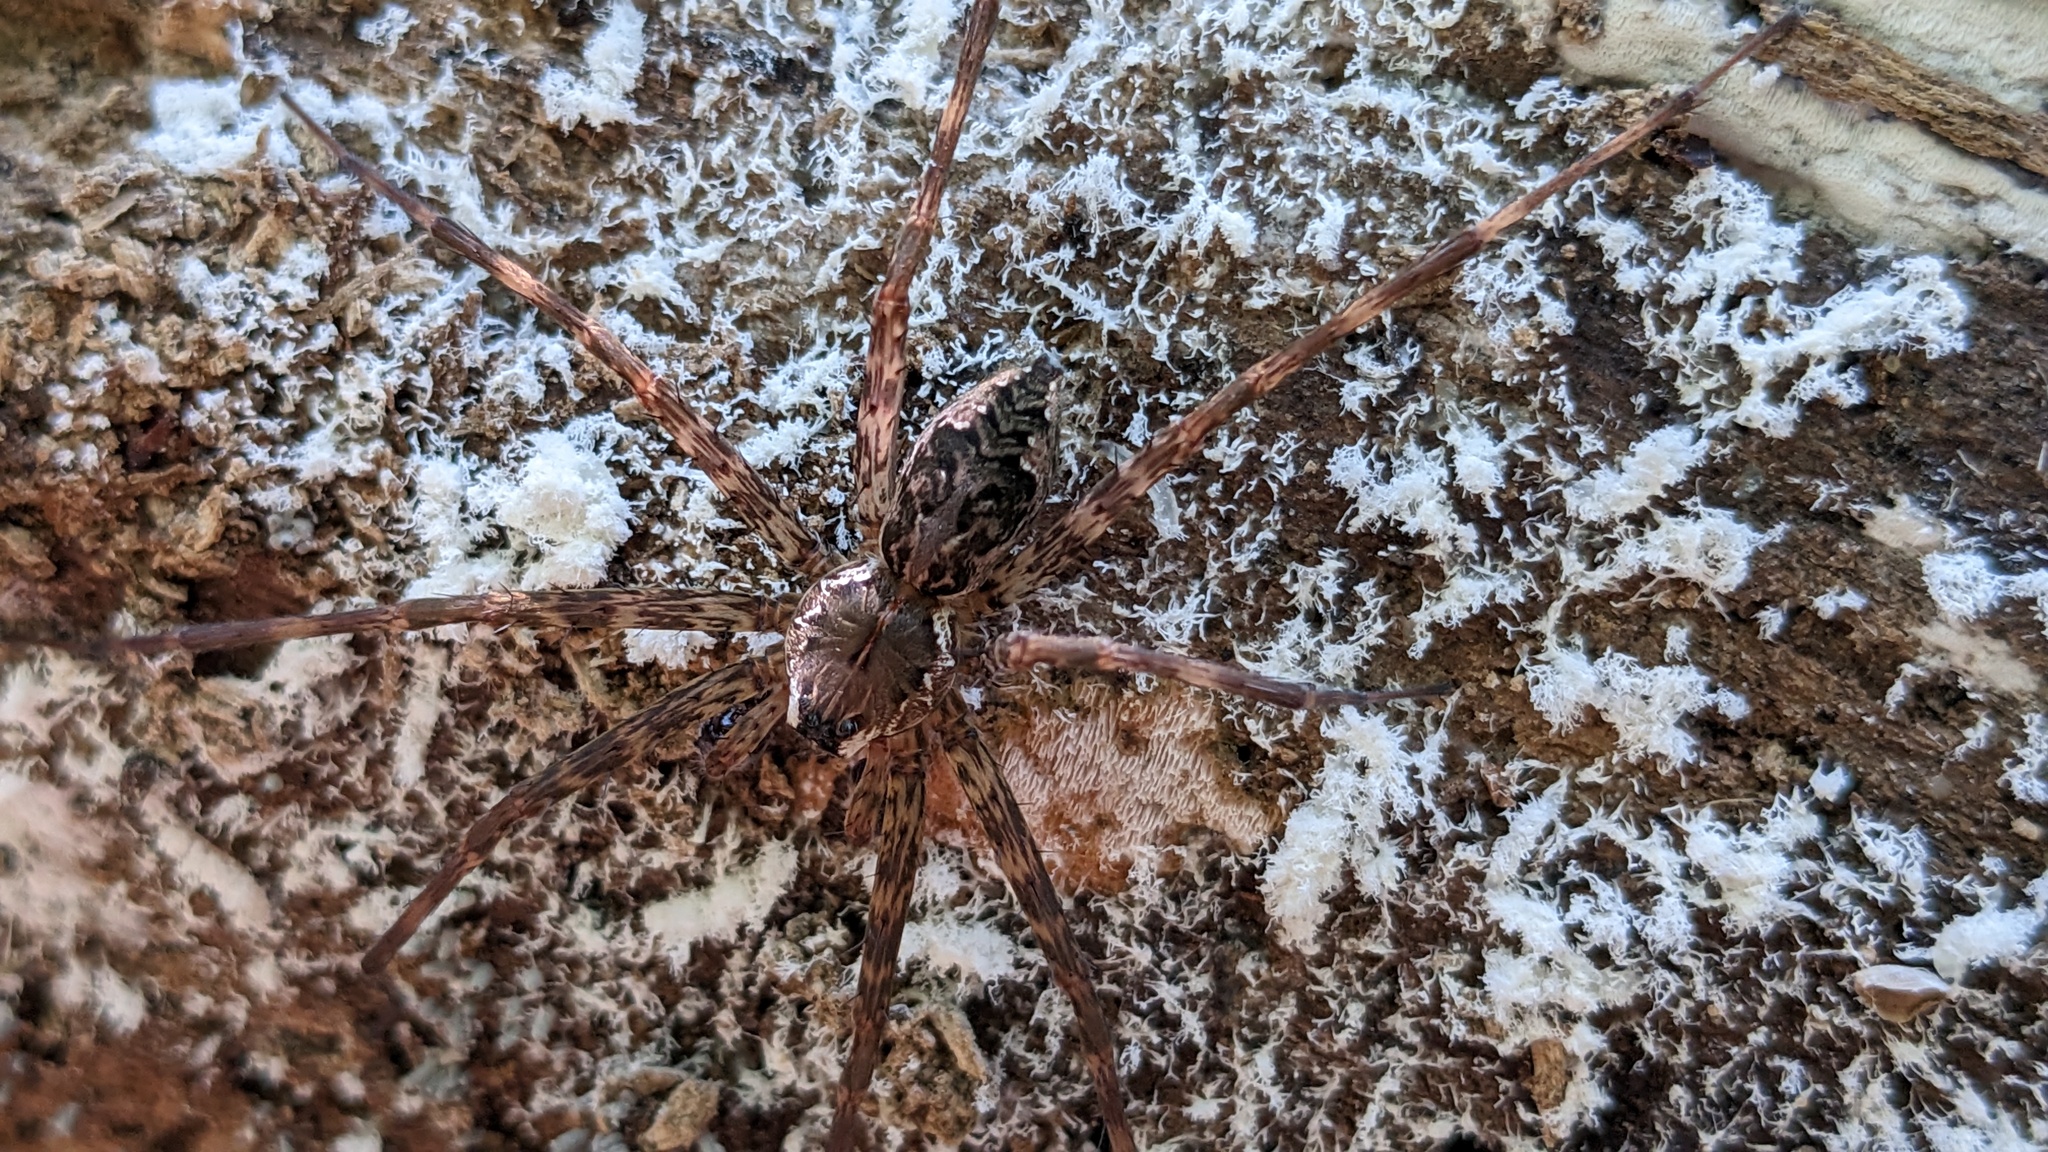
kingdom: Animalia
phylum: Arthropoda
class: Arachnida
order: Araneae
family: Pisauridae
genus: Dolomedes
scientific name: Dolomedes tenebrosus
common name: Dark fishing spider
